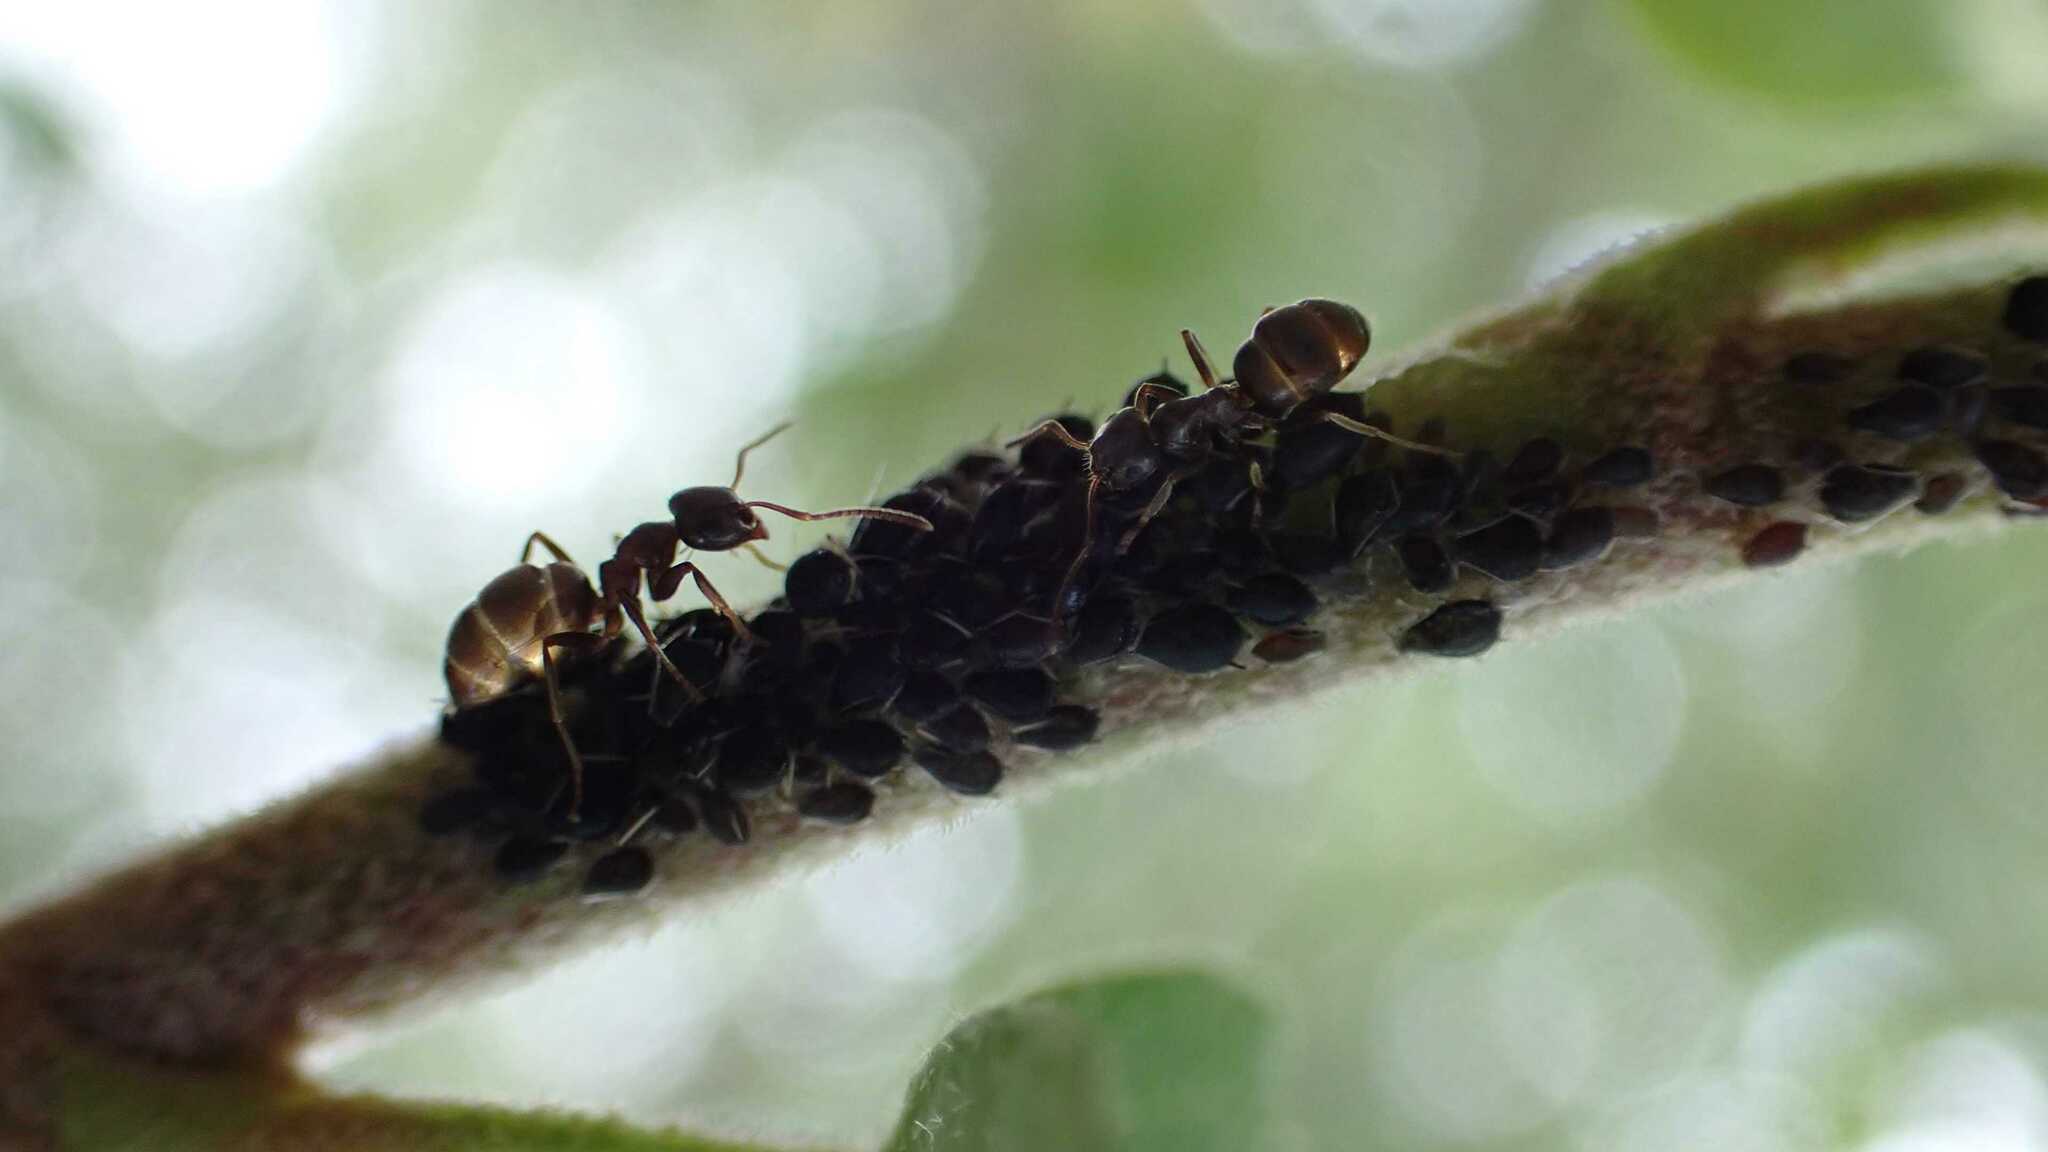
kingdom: Animalia
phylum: Arthropoda
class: Insecta
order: Hymenoptera
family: Formicidae
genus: Lasius
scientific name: Lasius
